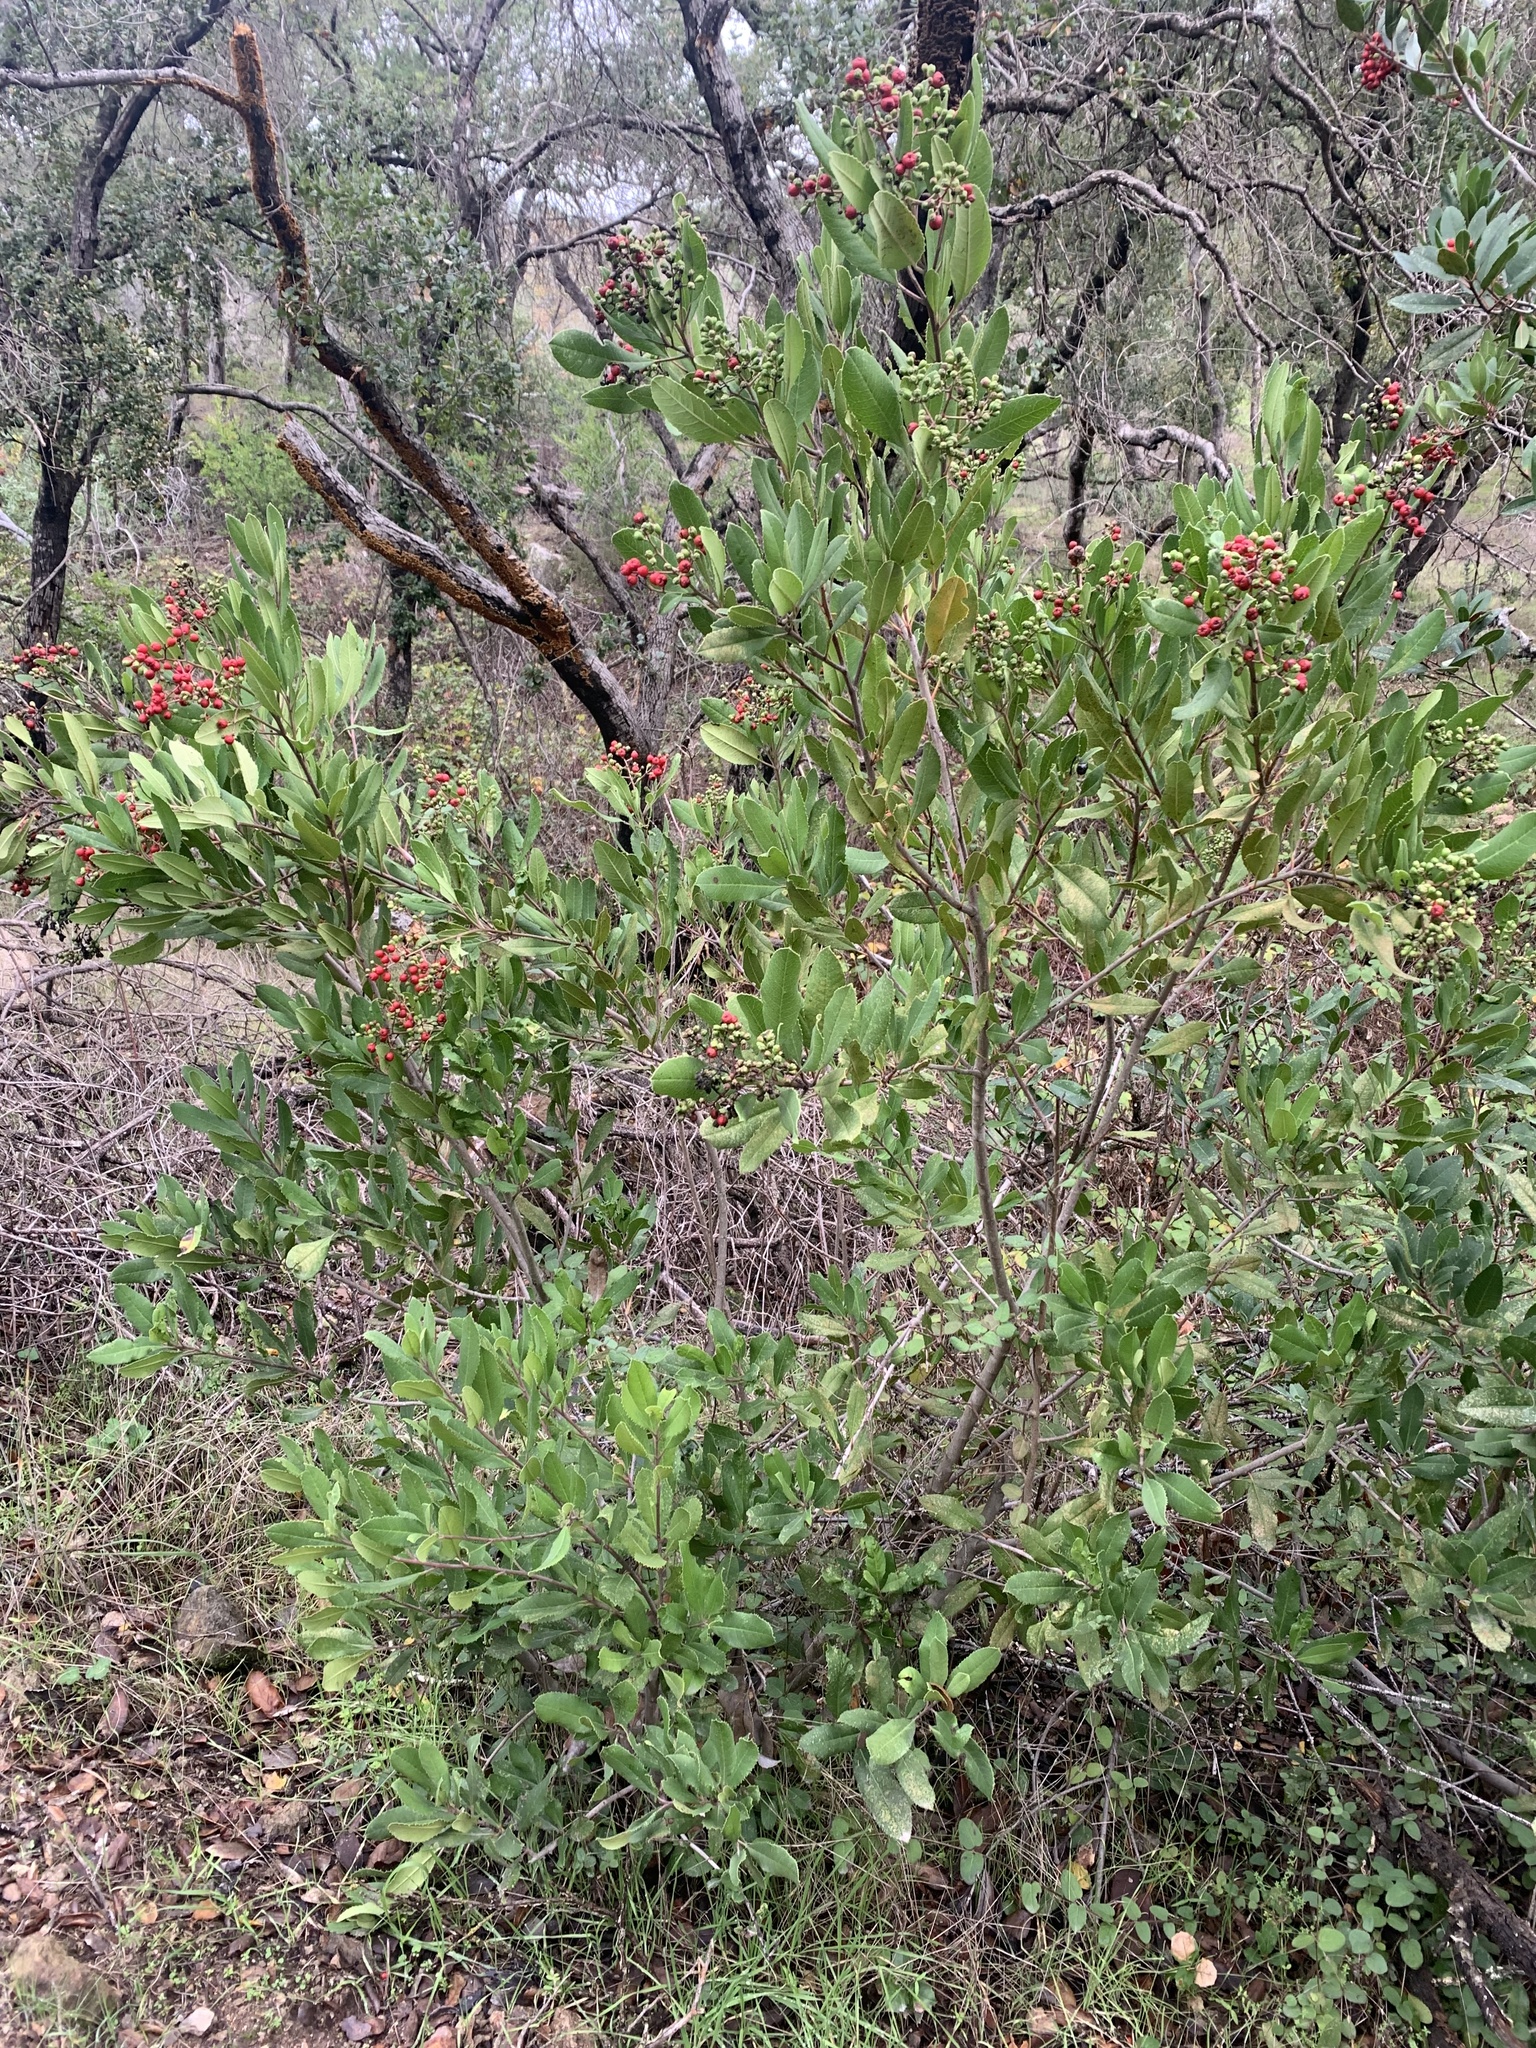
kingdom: Plantae
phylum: Tracheophyta
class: Magnoliopsida
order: Rosales
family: Rosaceae
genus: Heteromeles
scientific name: Heteromeles arbutifolia
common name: California-holly
